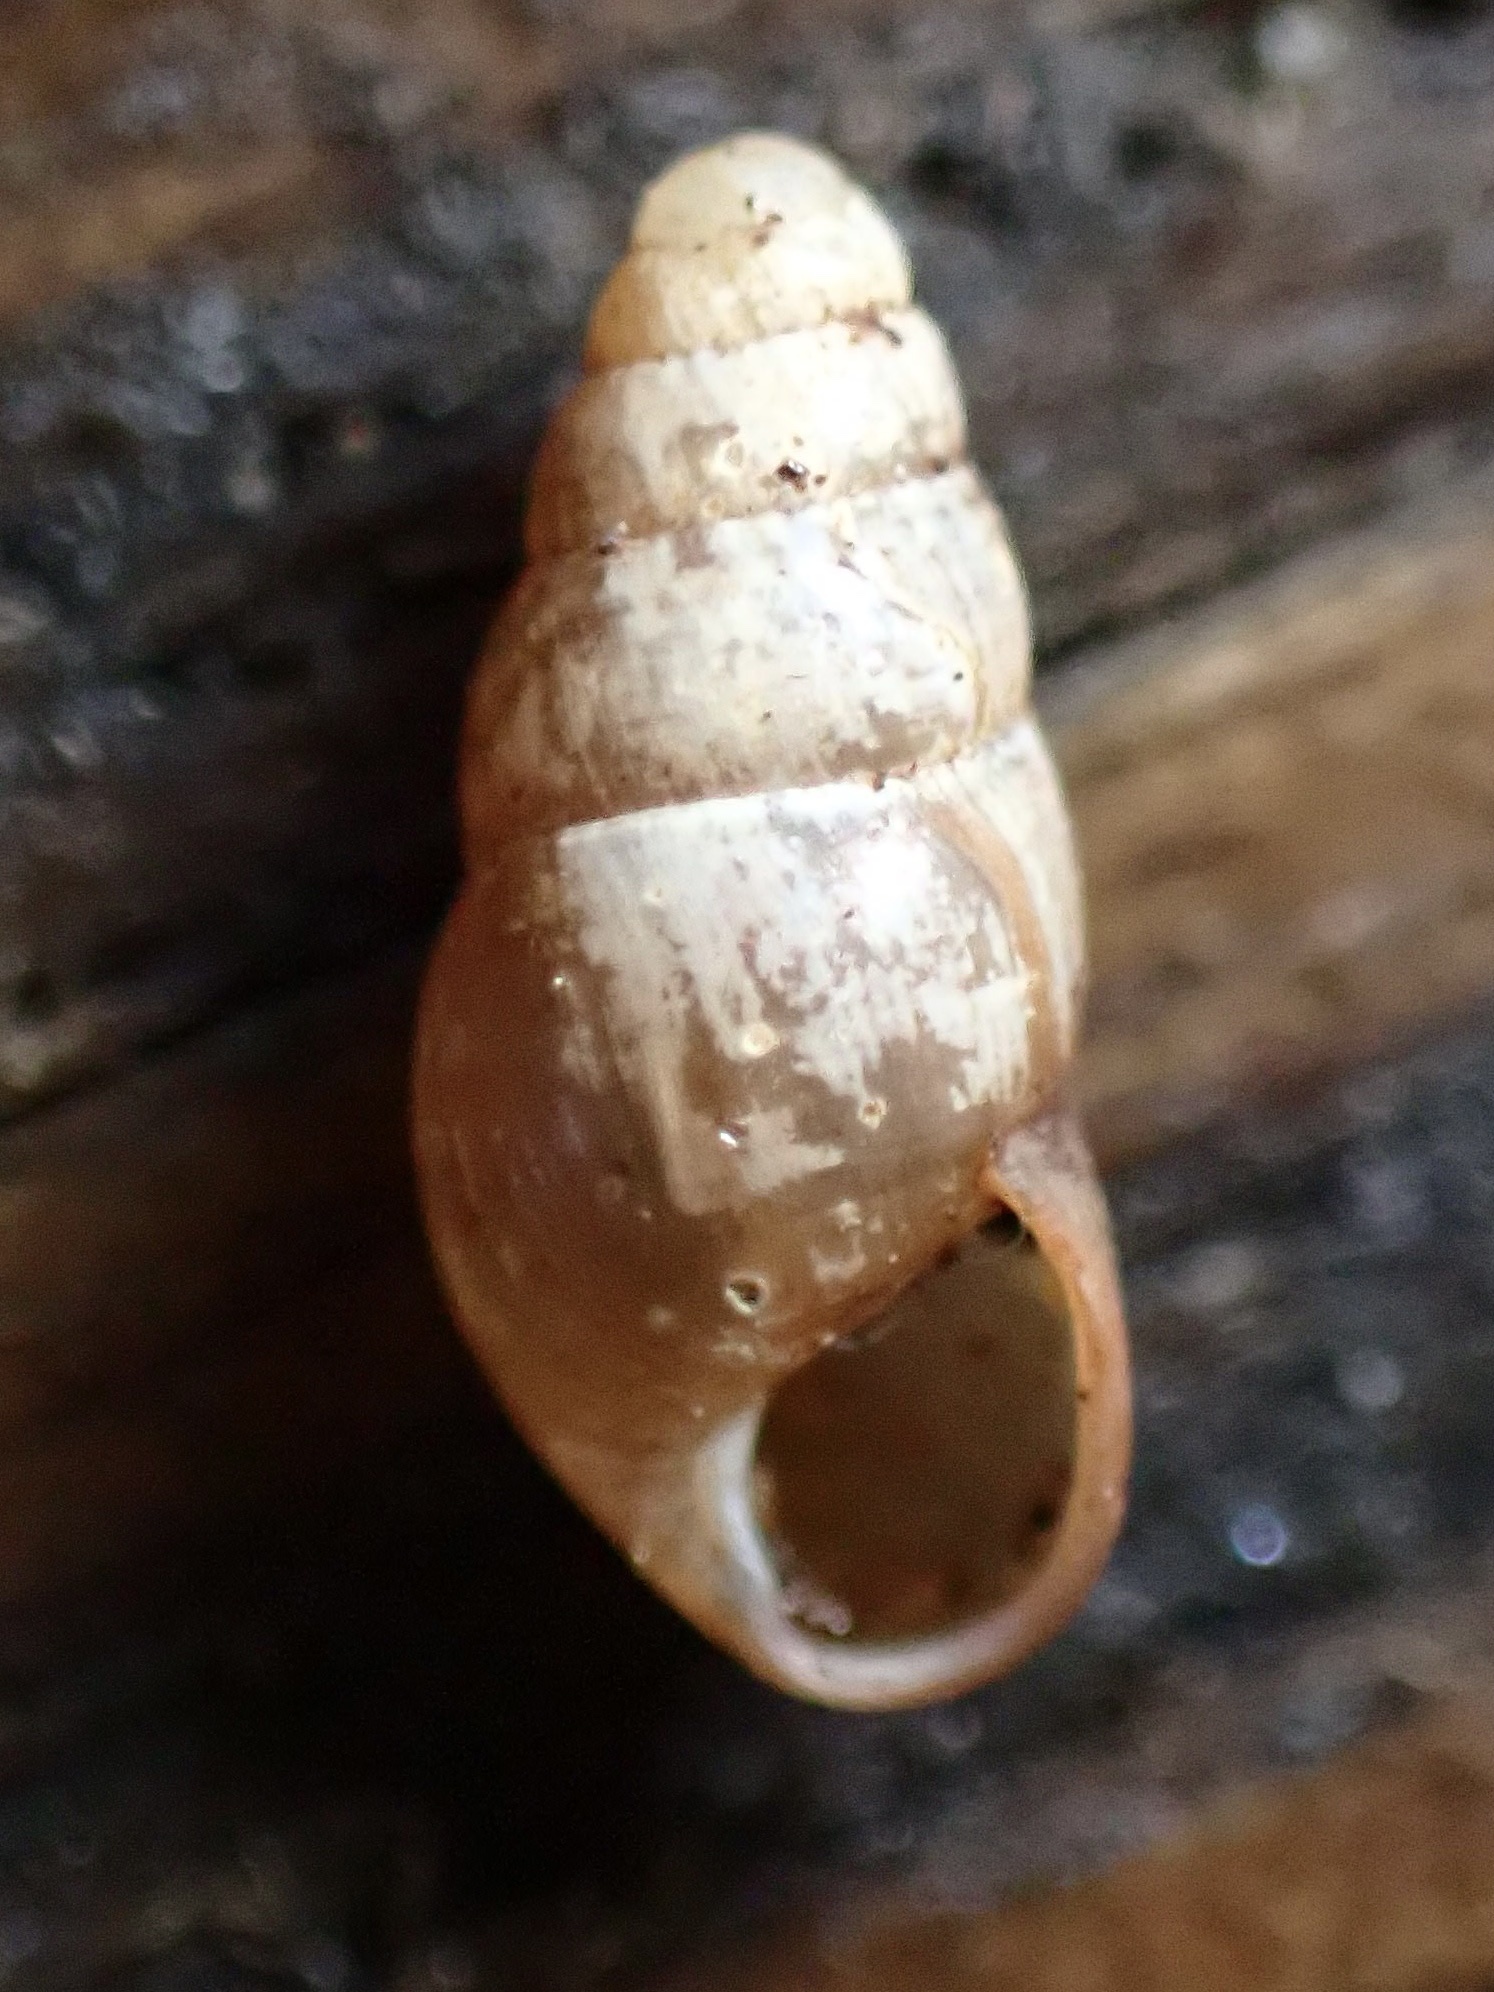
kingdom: Animalia
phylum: Mollusca
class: Gastropoda
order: Stylommatophora
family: Cochlicopidae
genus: Cochlicopa
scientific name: Cochlicopa lubrica
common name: Glossy pillar snail
